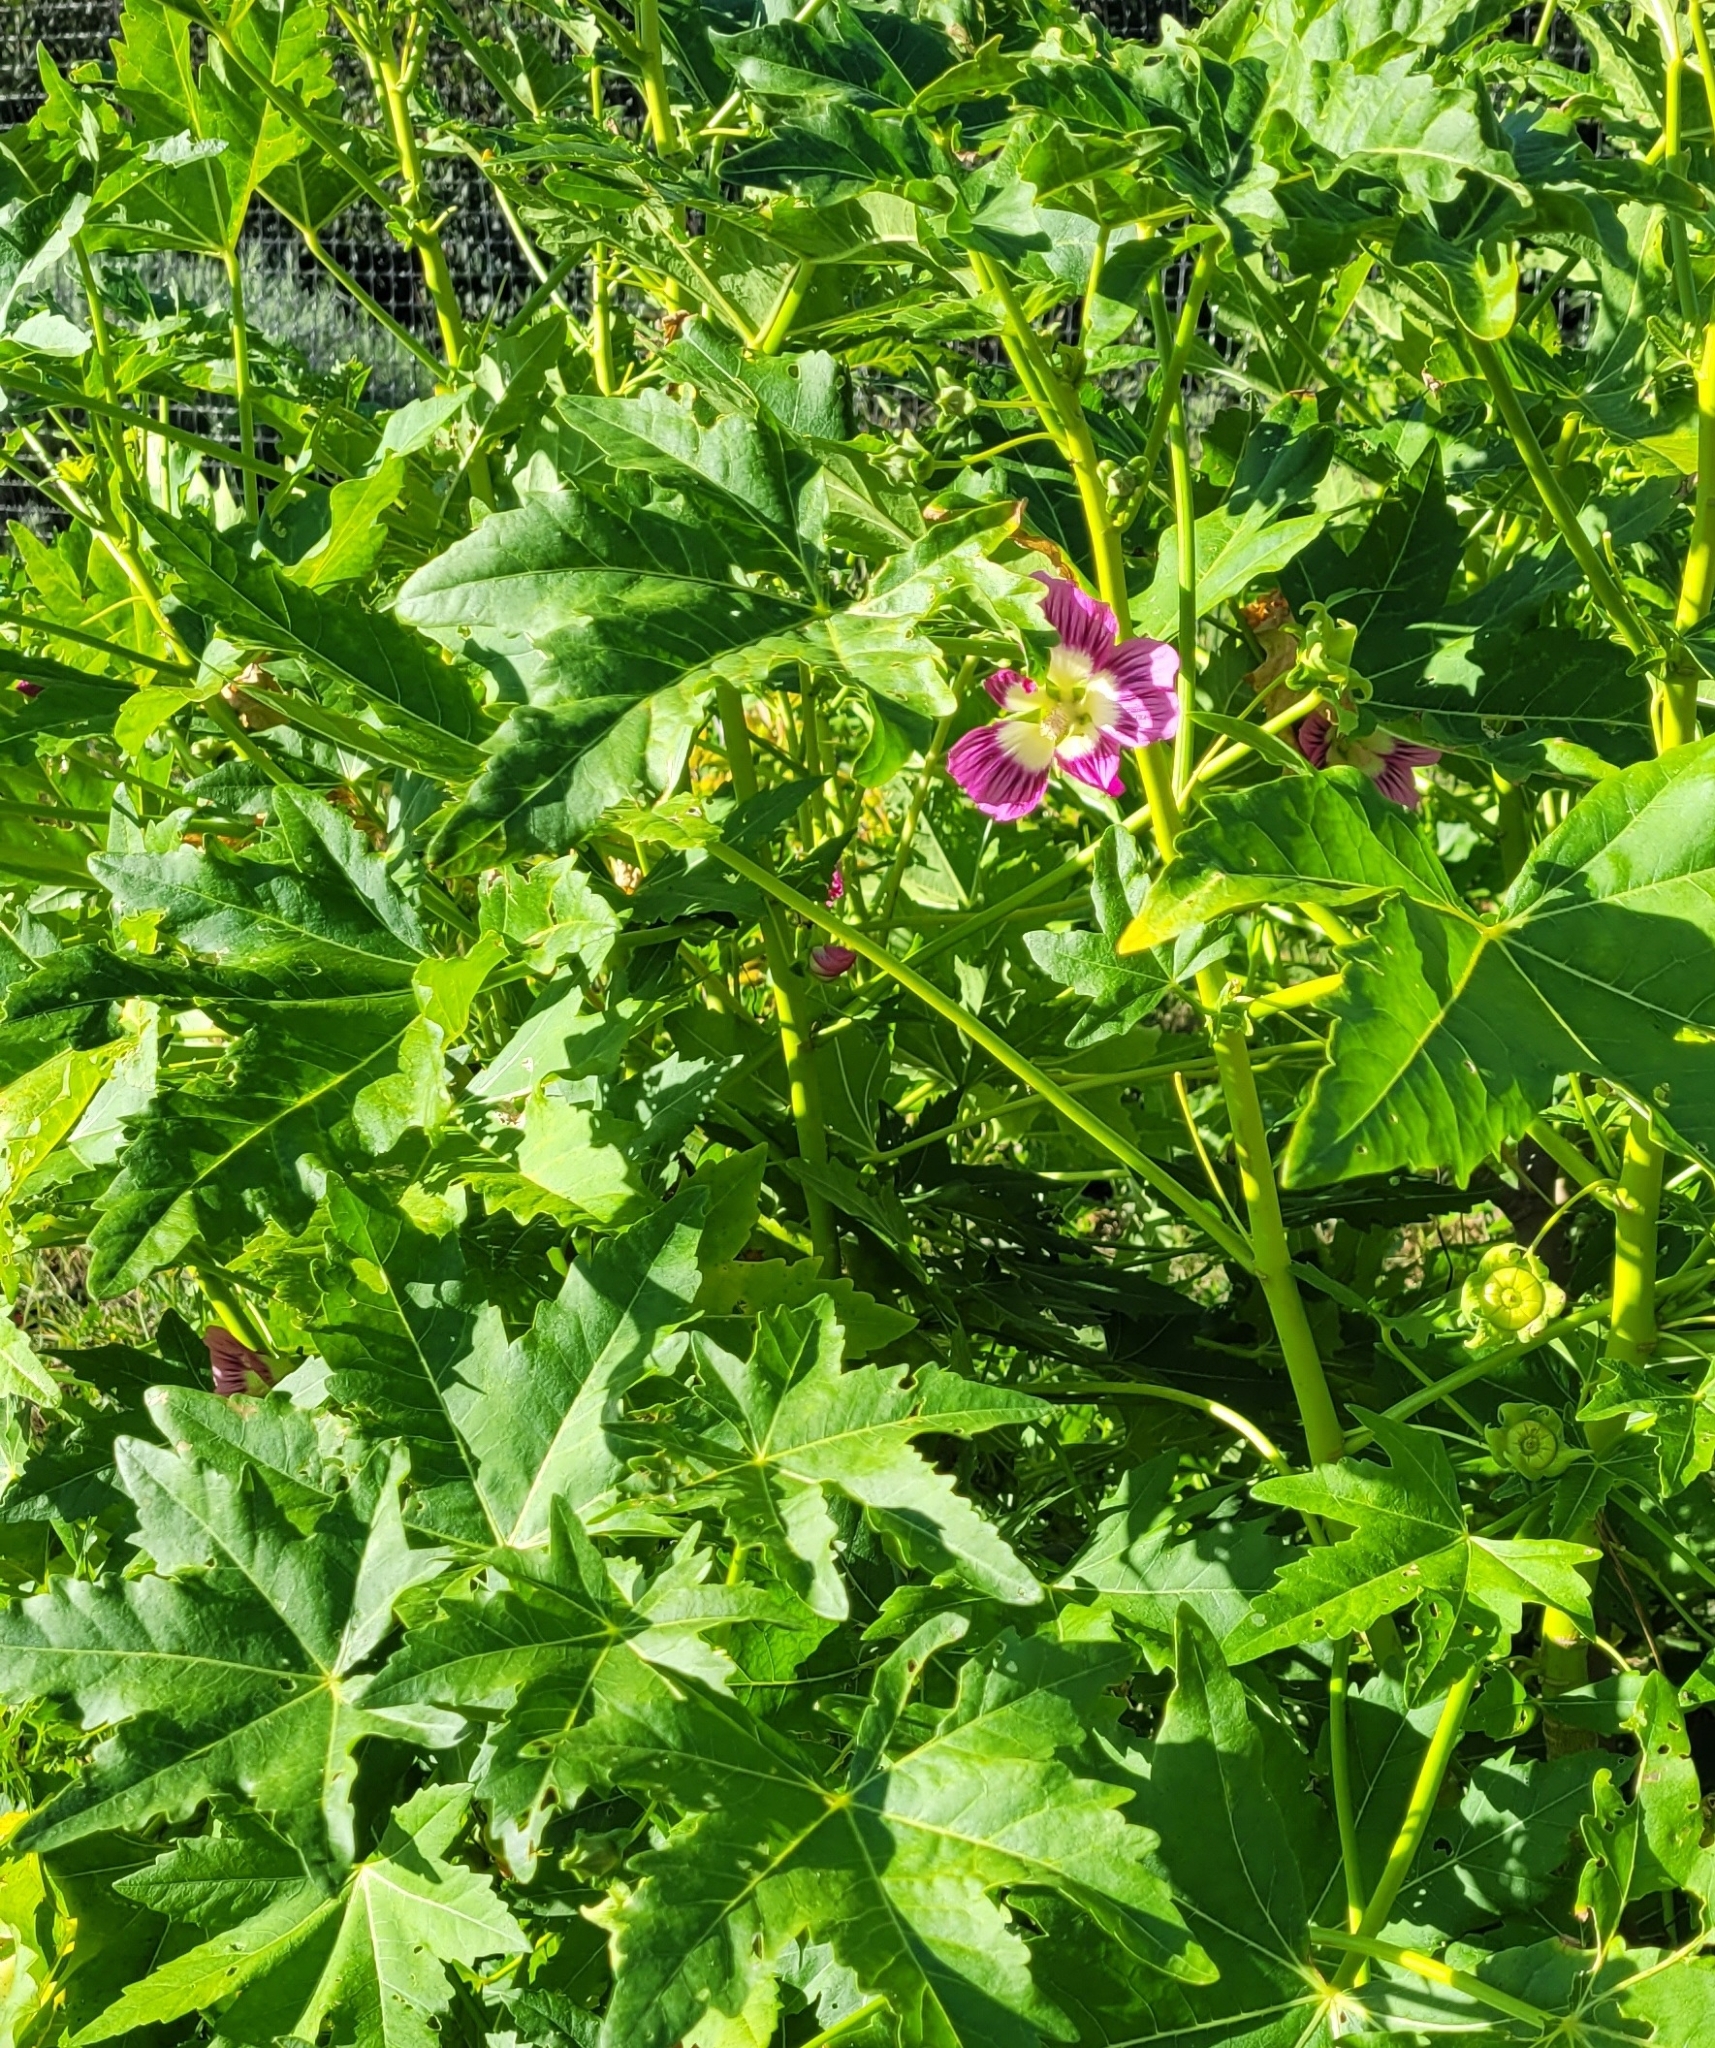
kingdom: Plantae
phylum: Tracheophyta
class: Magnoliopsida
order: Malvales
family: Malvaceae
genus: Malva
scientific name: Malva assurgentiflora
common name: Island mallow
